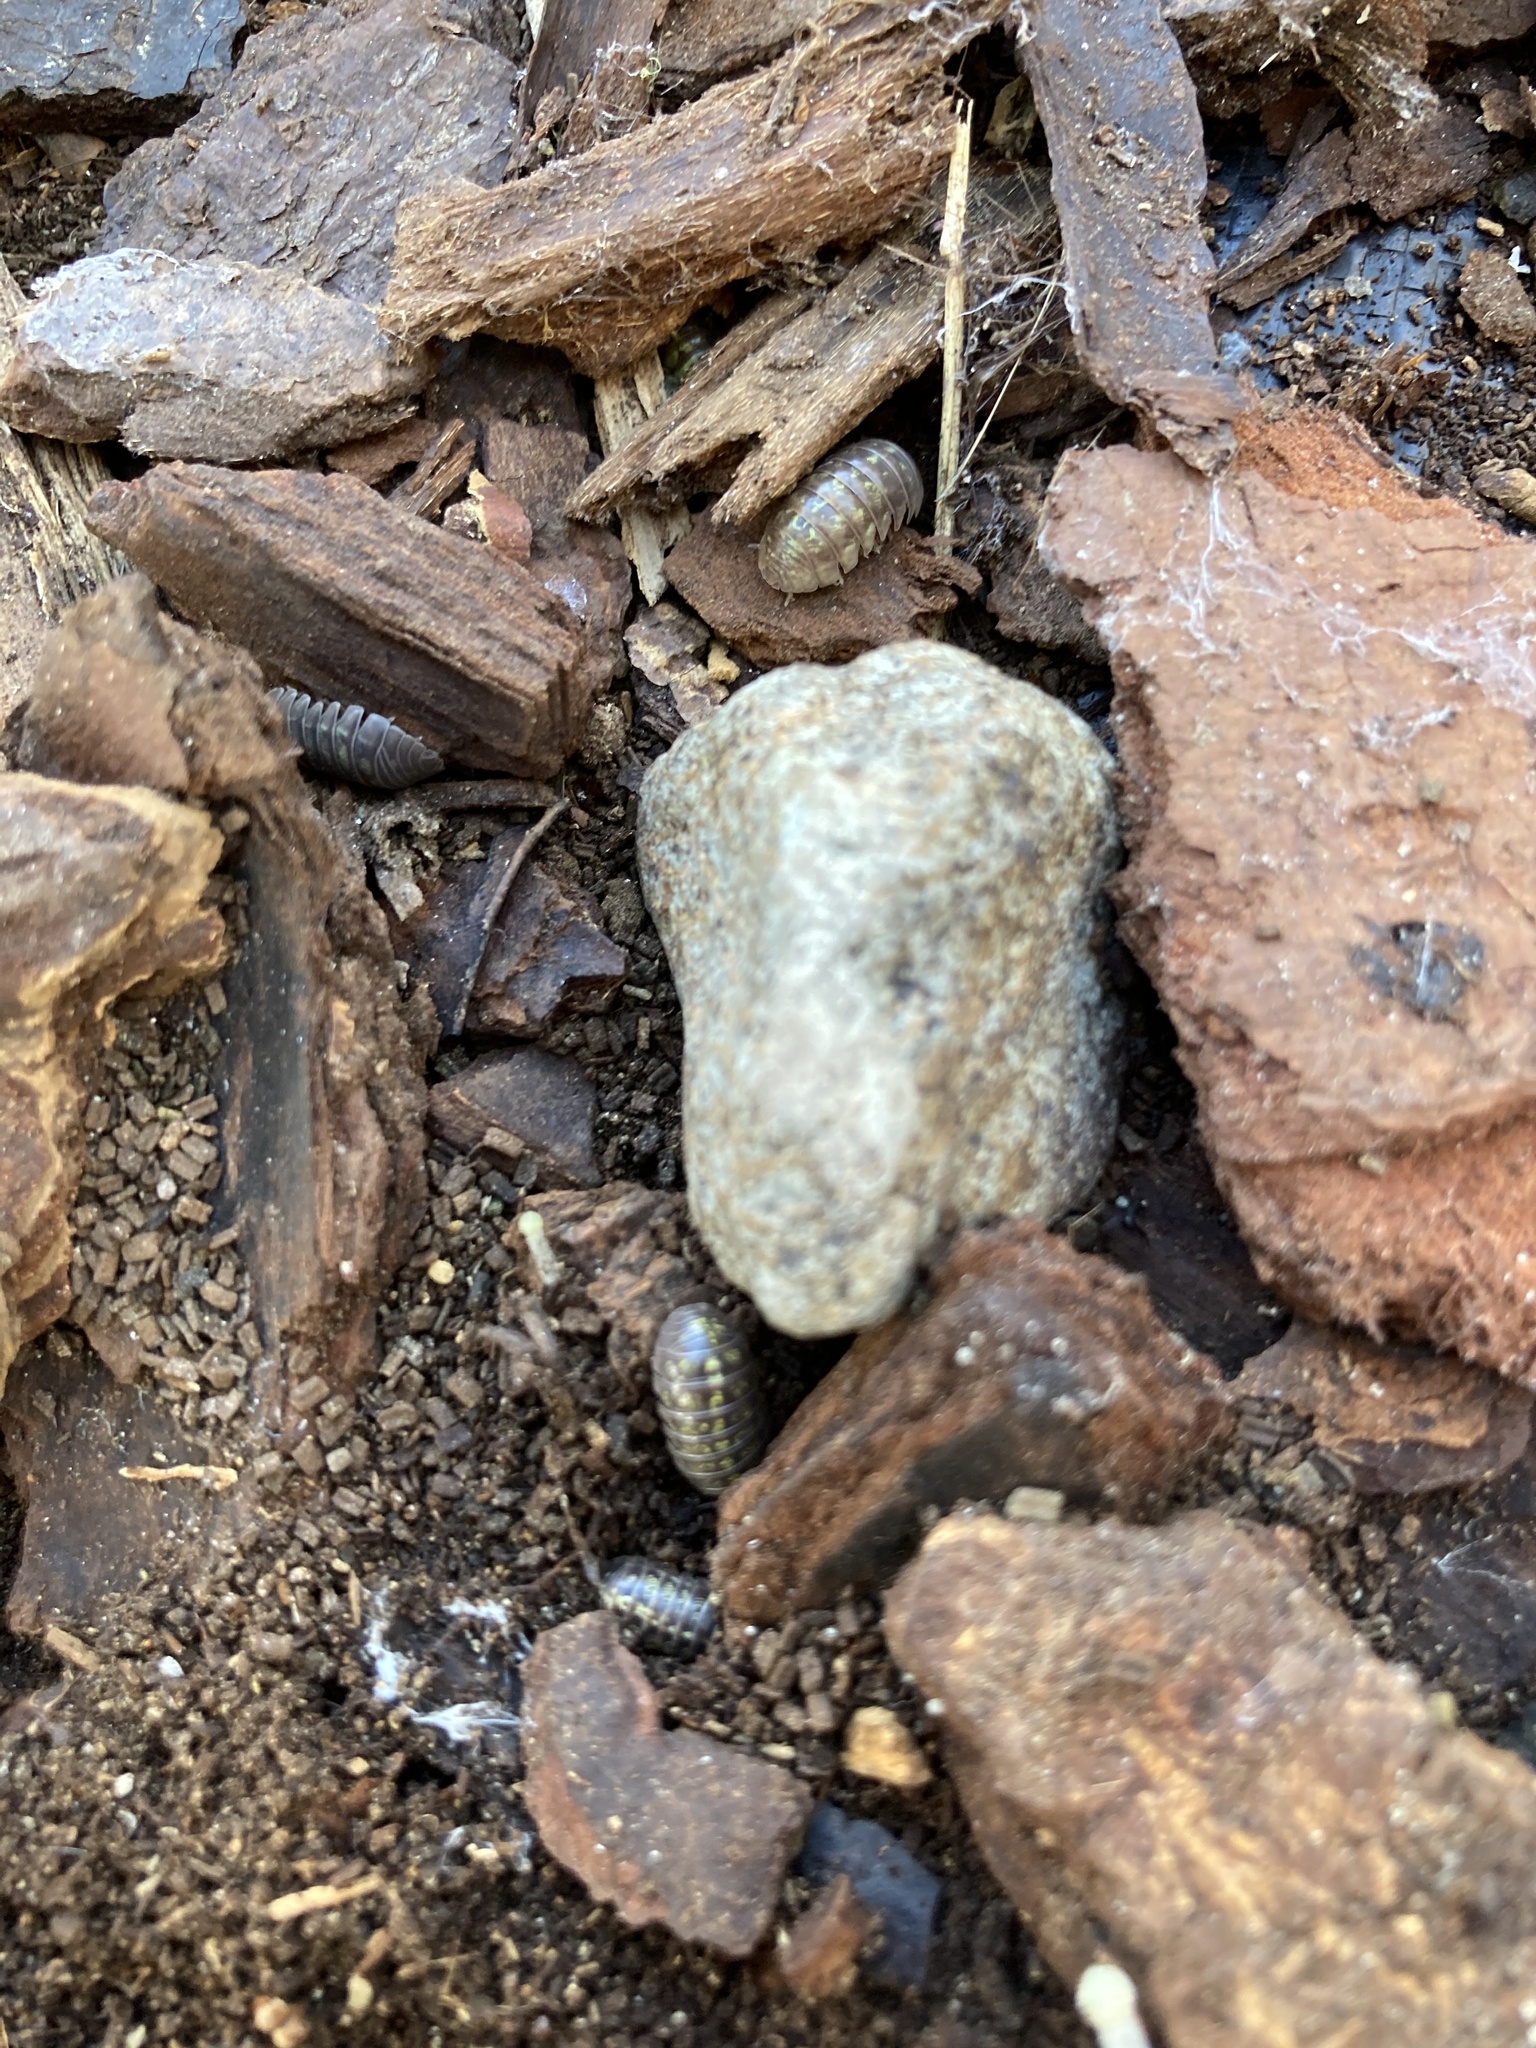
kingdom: Animalia
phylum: Arthropoda
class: Malacostraca
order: Isopoda
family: Armadillidiidae
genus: Armadillidium
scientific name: Armadillidium vulgare
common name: Common pill woodlouse
